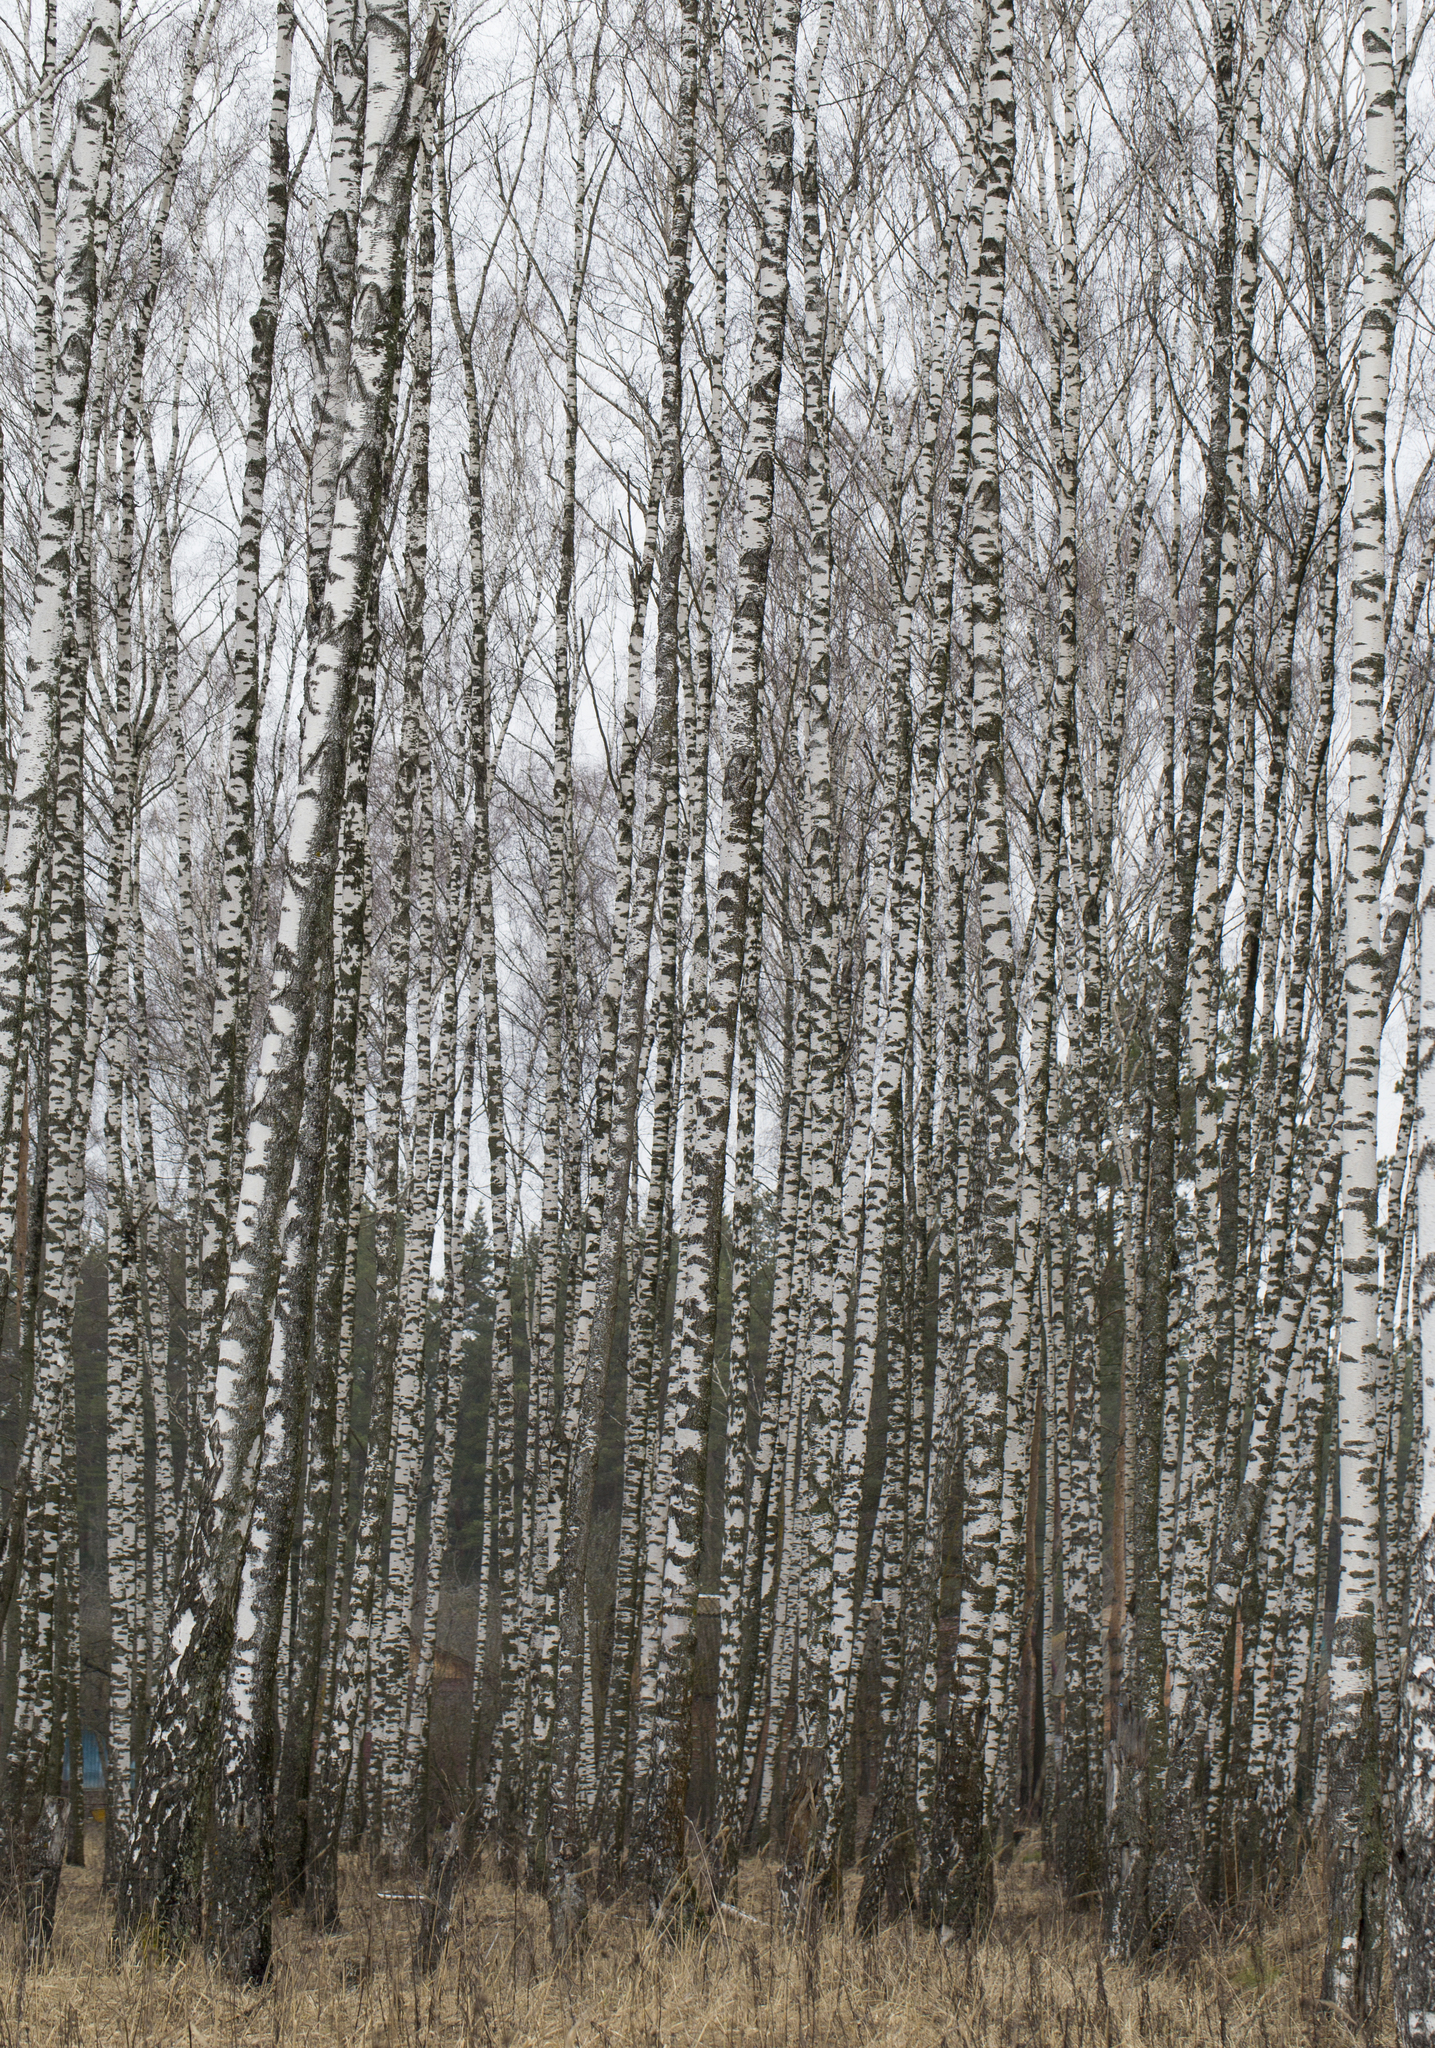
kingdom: Plantae
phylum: Tracheophyta
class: Magnoliopsida
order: Fagales
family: Betulaceae
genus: Betula
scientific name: Betula pendula
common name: Silver birch
